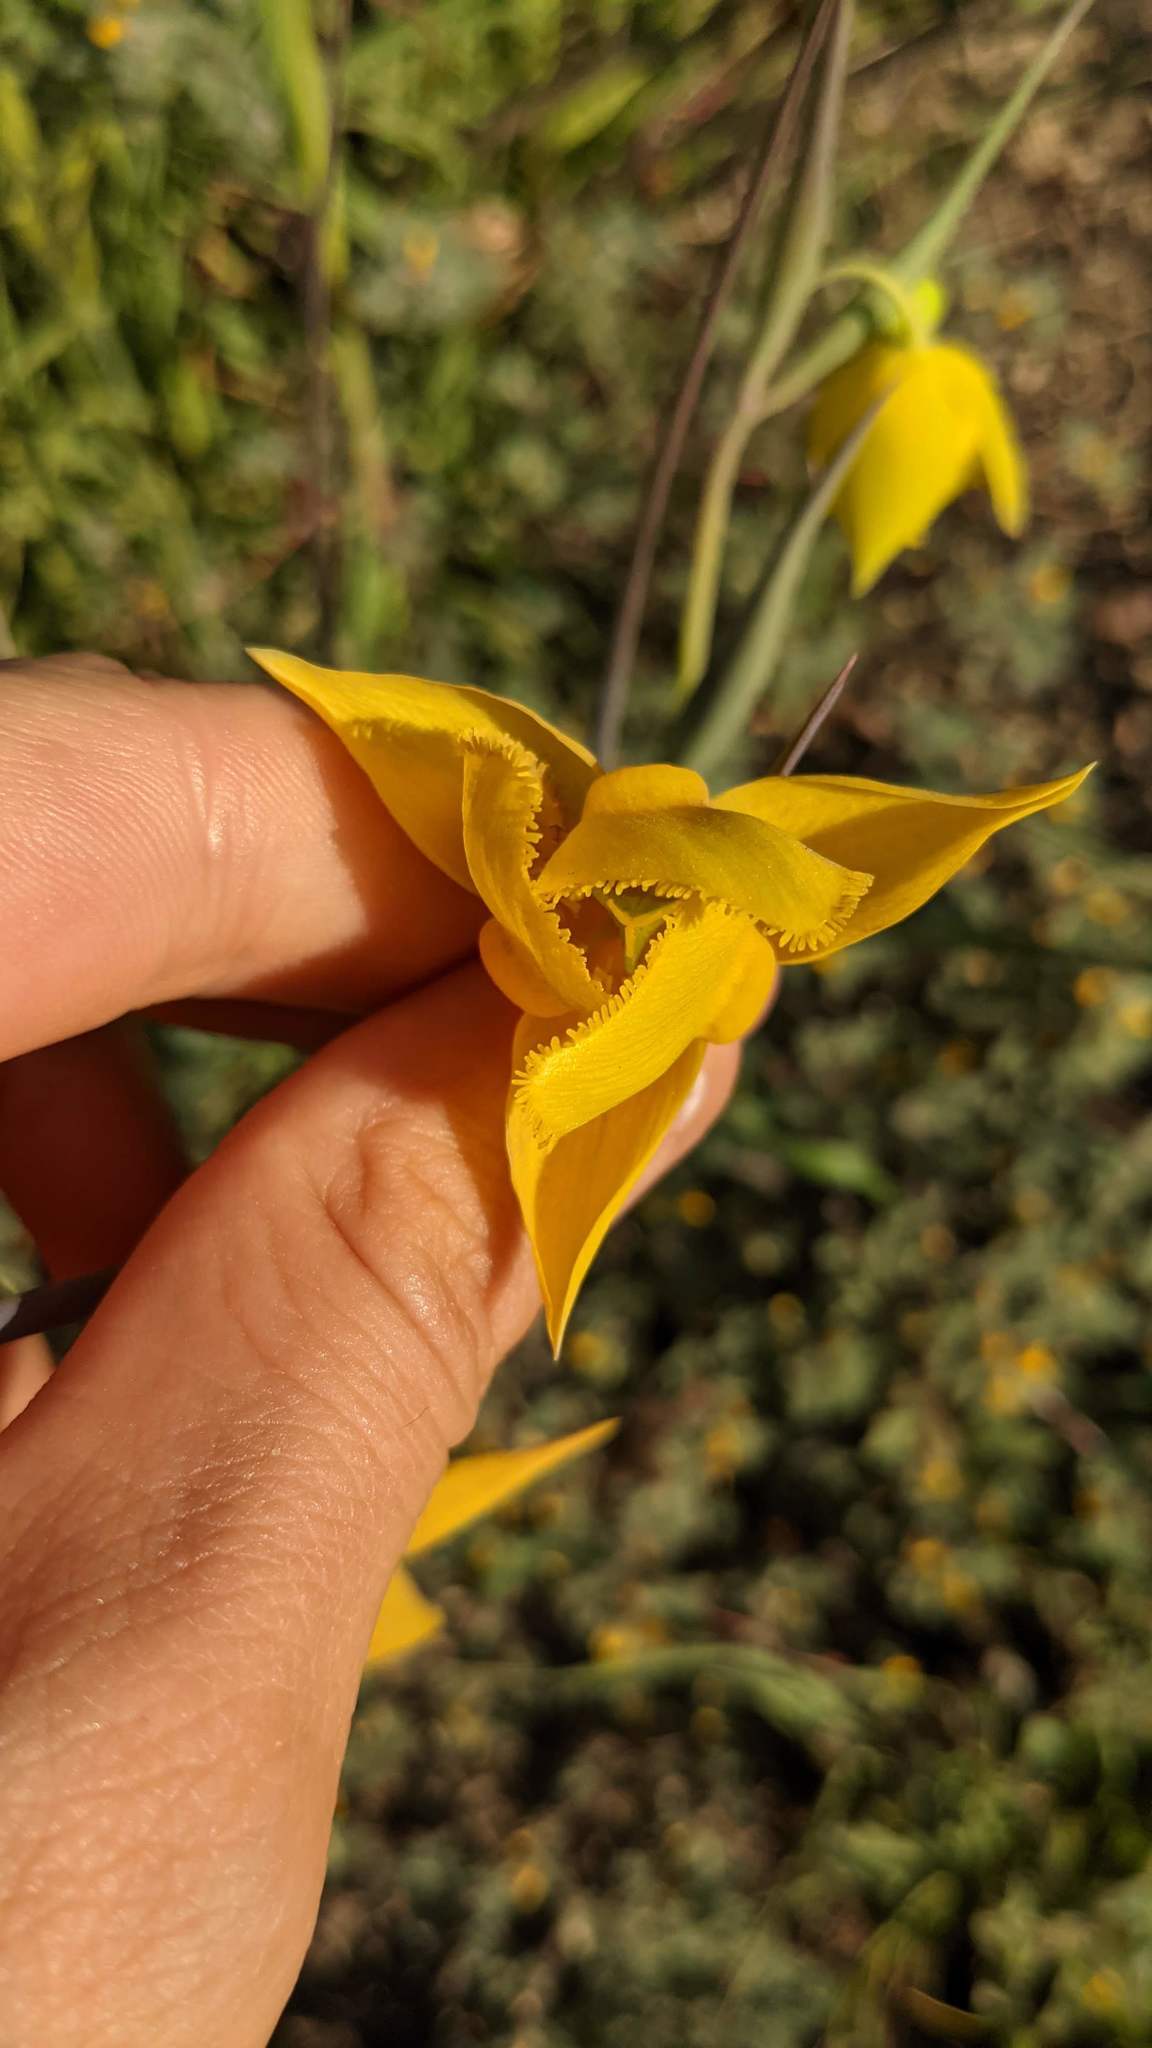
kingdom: Plantae
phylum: Tracheophyta
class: Liliopsida
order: Liliales
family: Liliaceae
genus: Calochortus
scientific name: Calochortus amabilis
